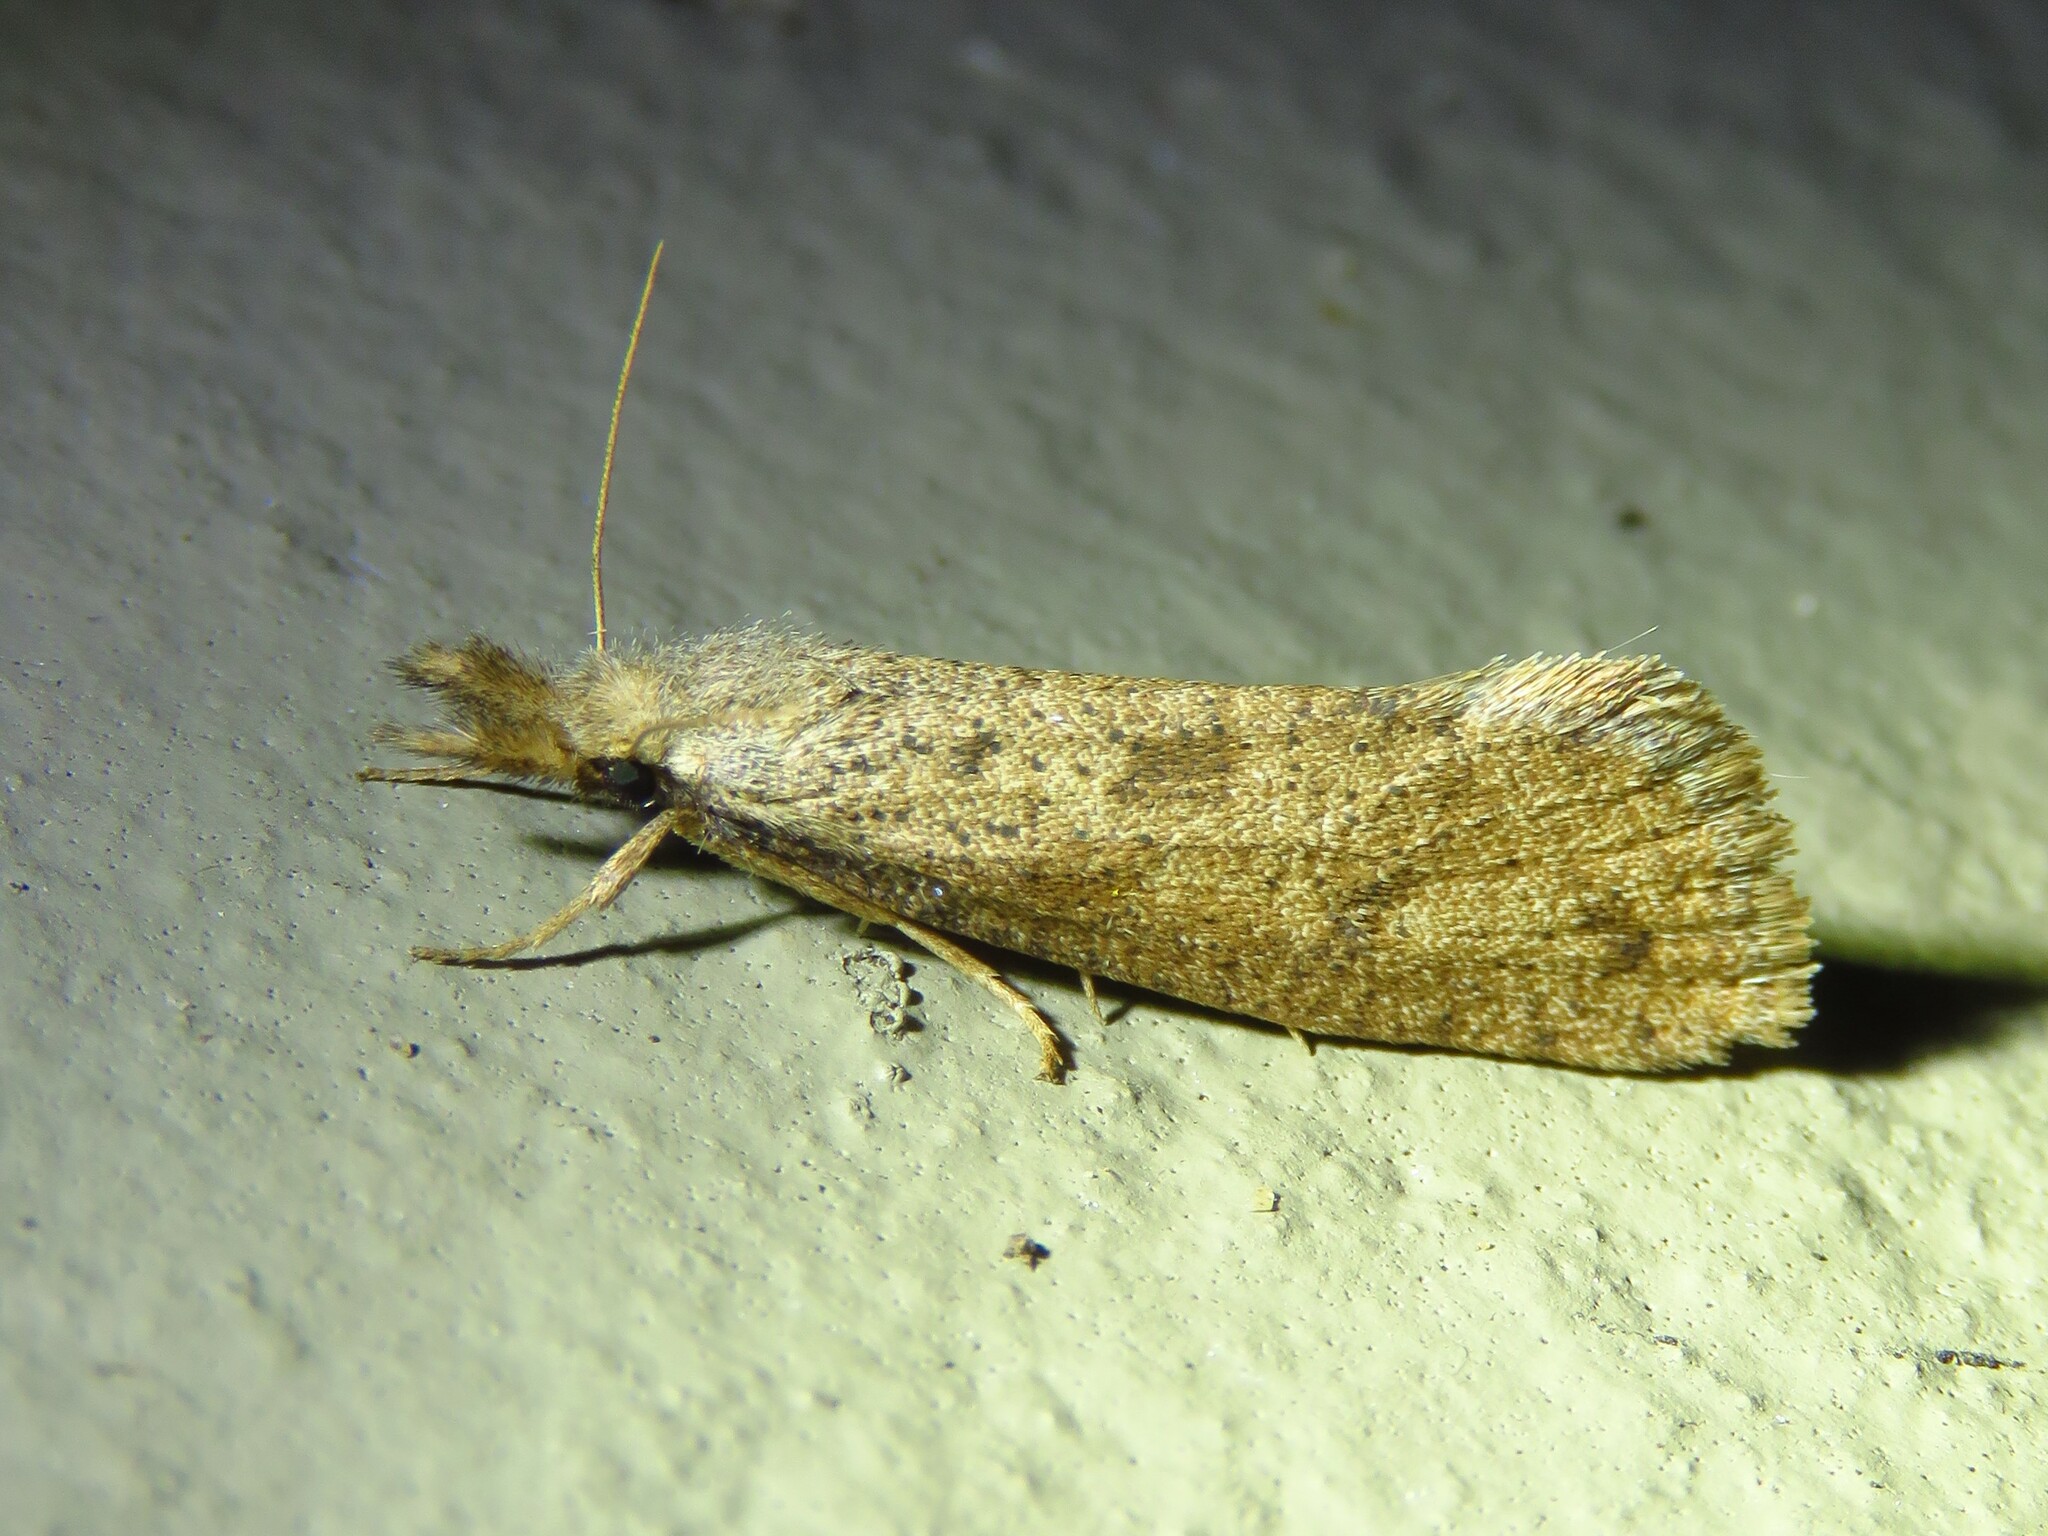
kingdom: Animalia
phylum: Arthropoda
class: Insecta
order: Lepidoptera
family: Tineidae
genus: Acrolophus
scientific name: Acrolophus mortipennella
